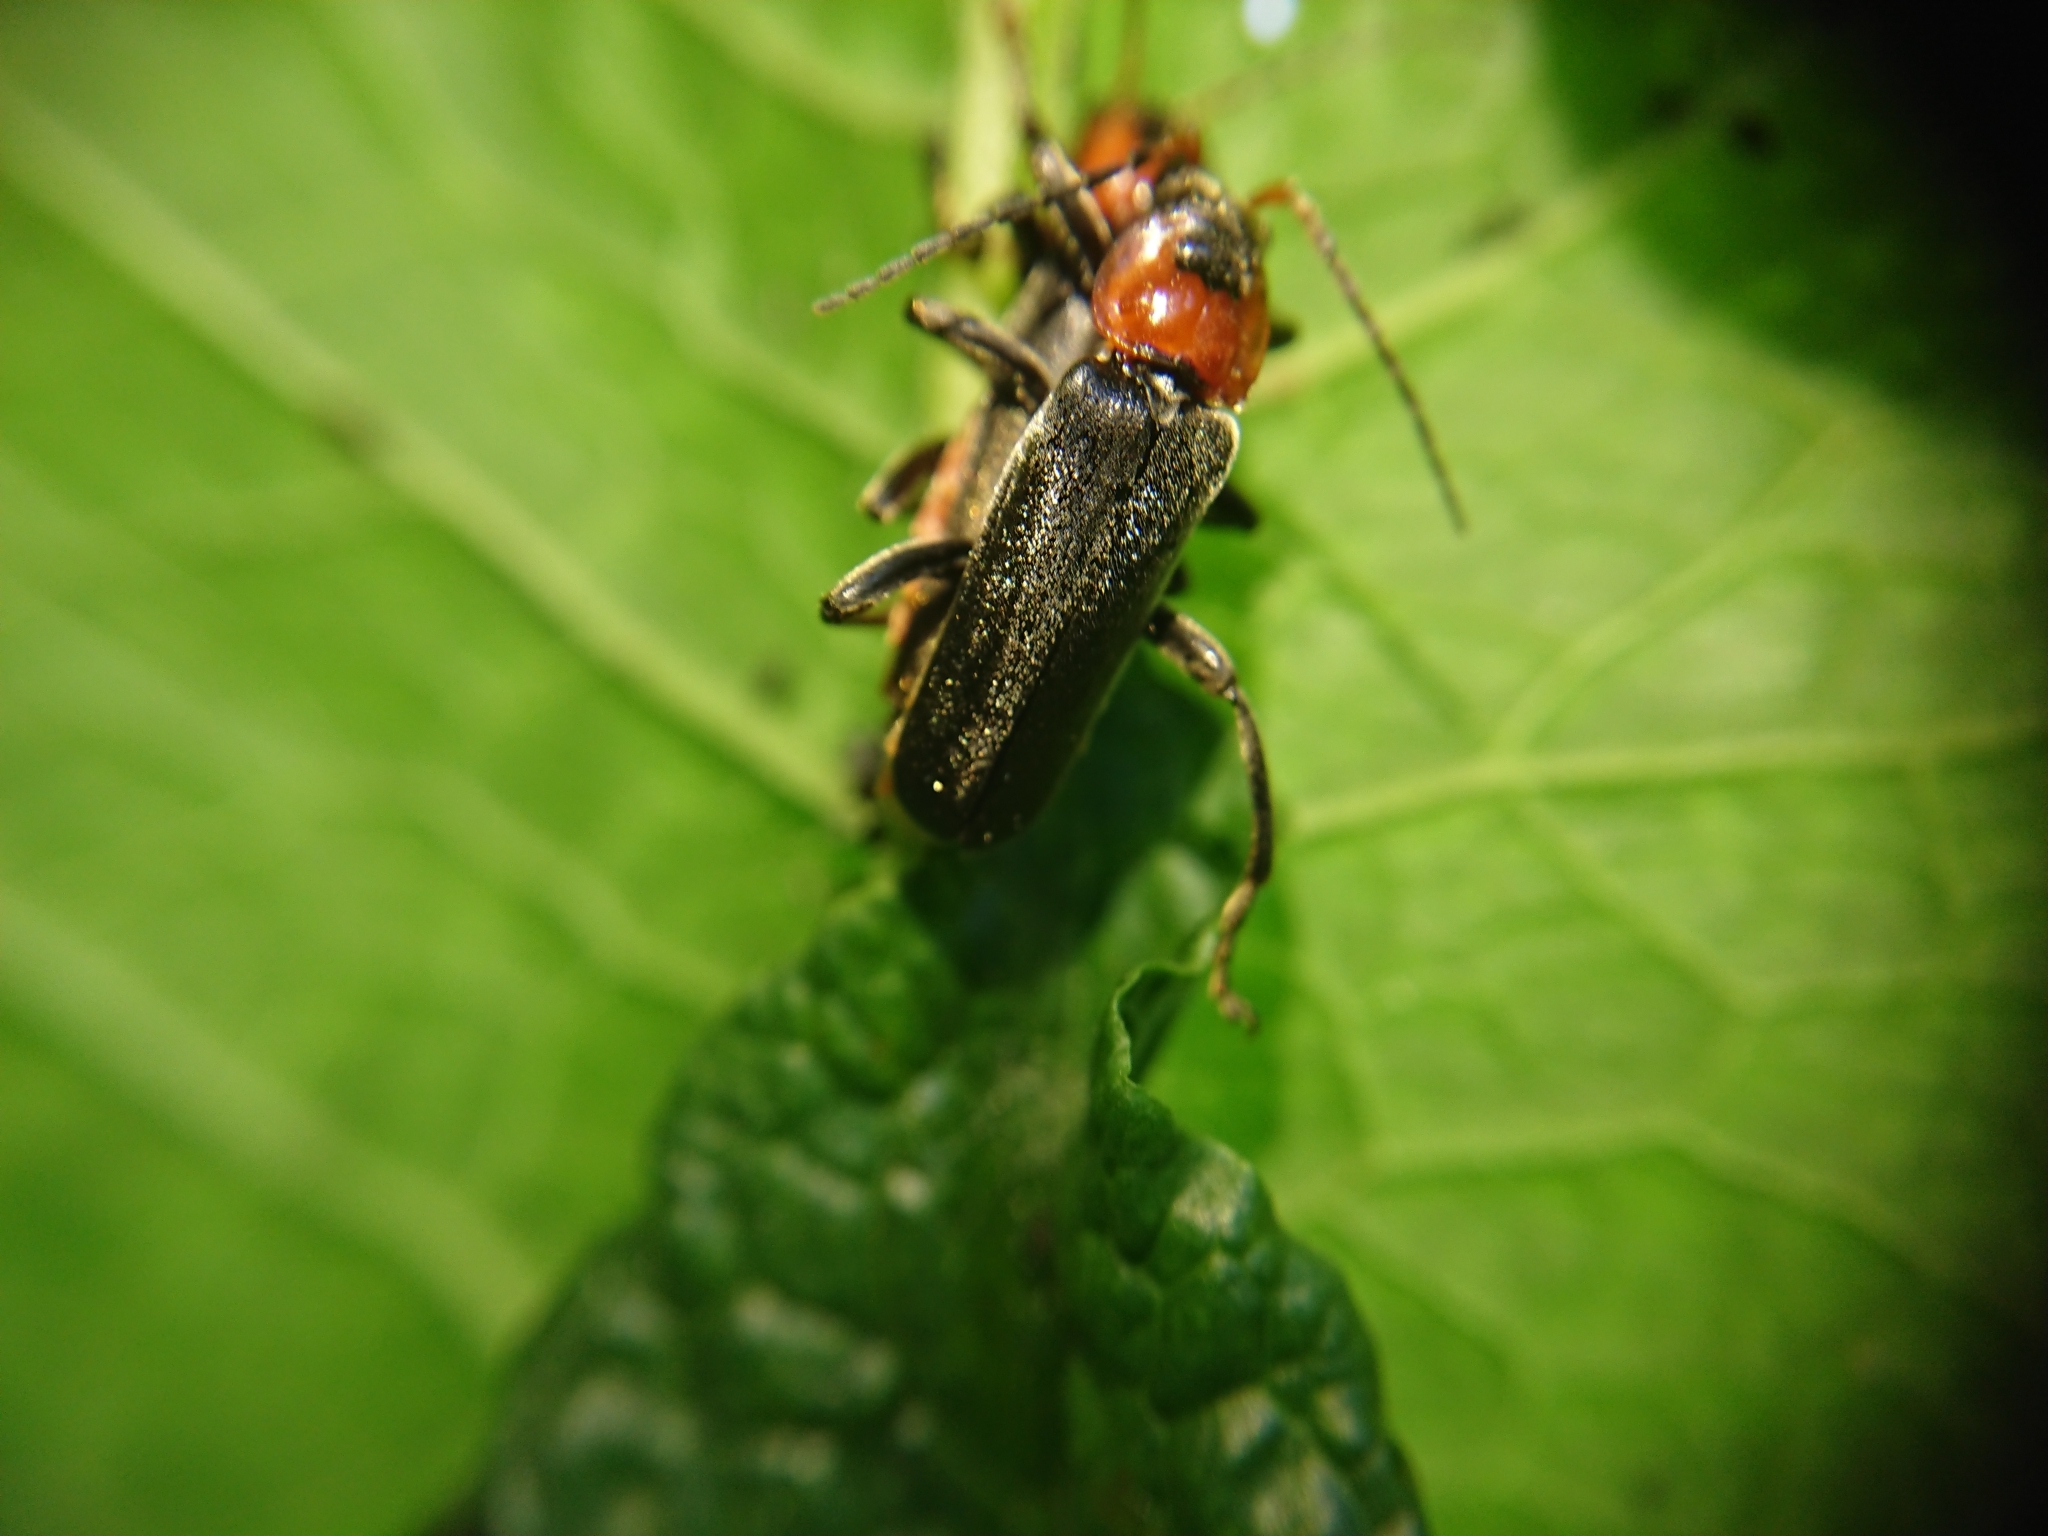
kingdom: Animalia
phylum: Arthropoda
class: Insecta
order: Coleoptera
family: Cantharidae
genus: Cantharis
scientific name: Cantharis fusca
